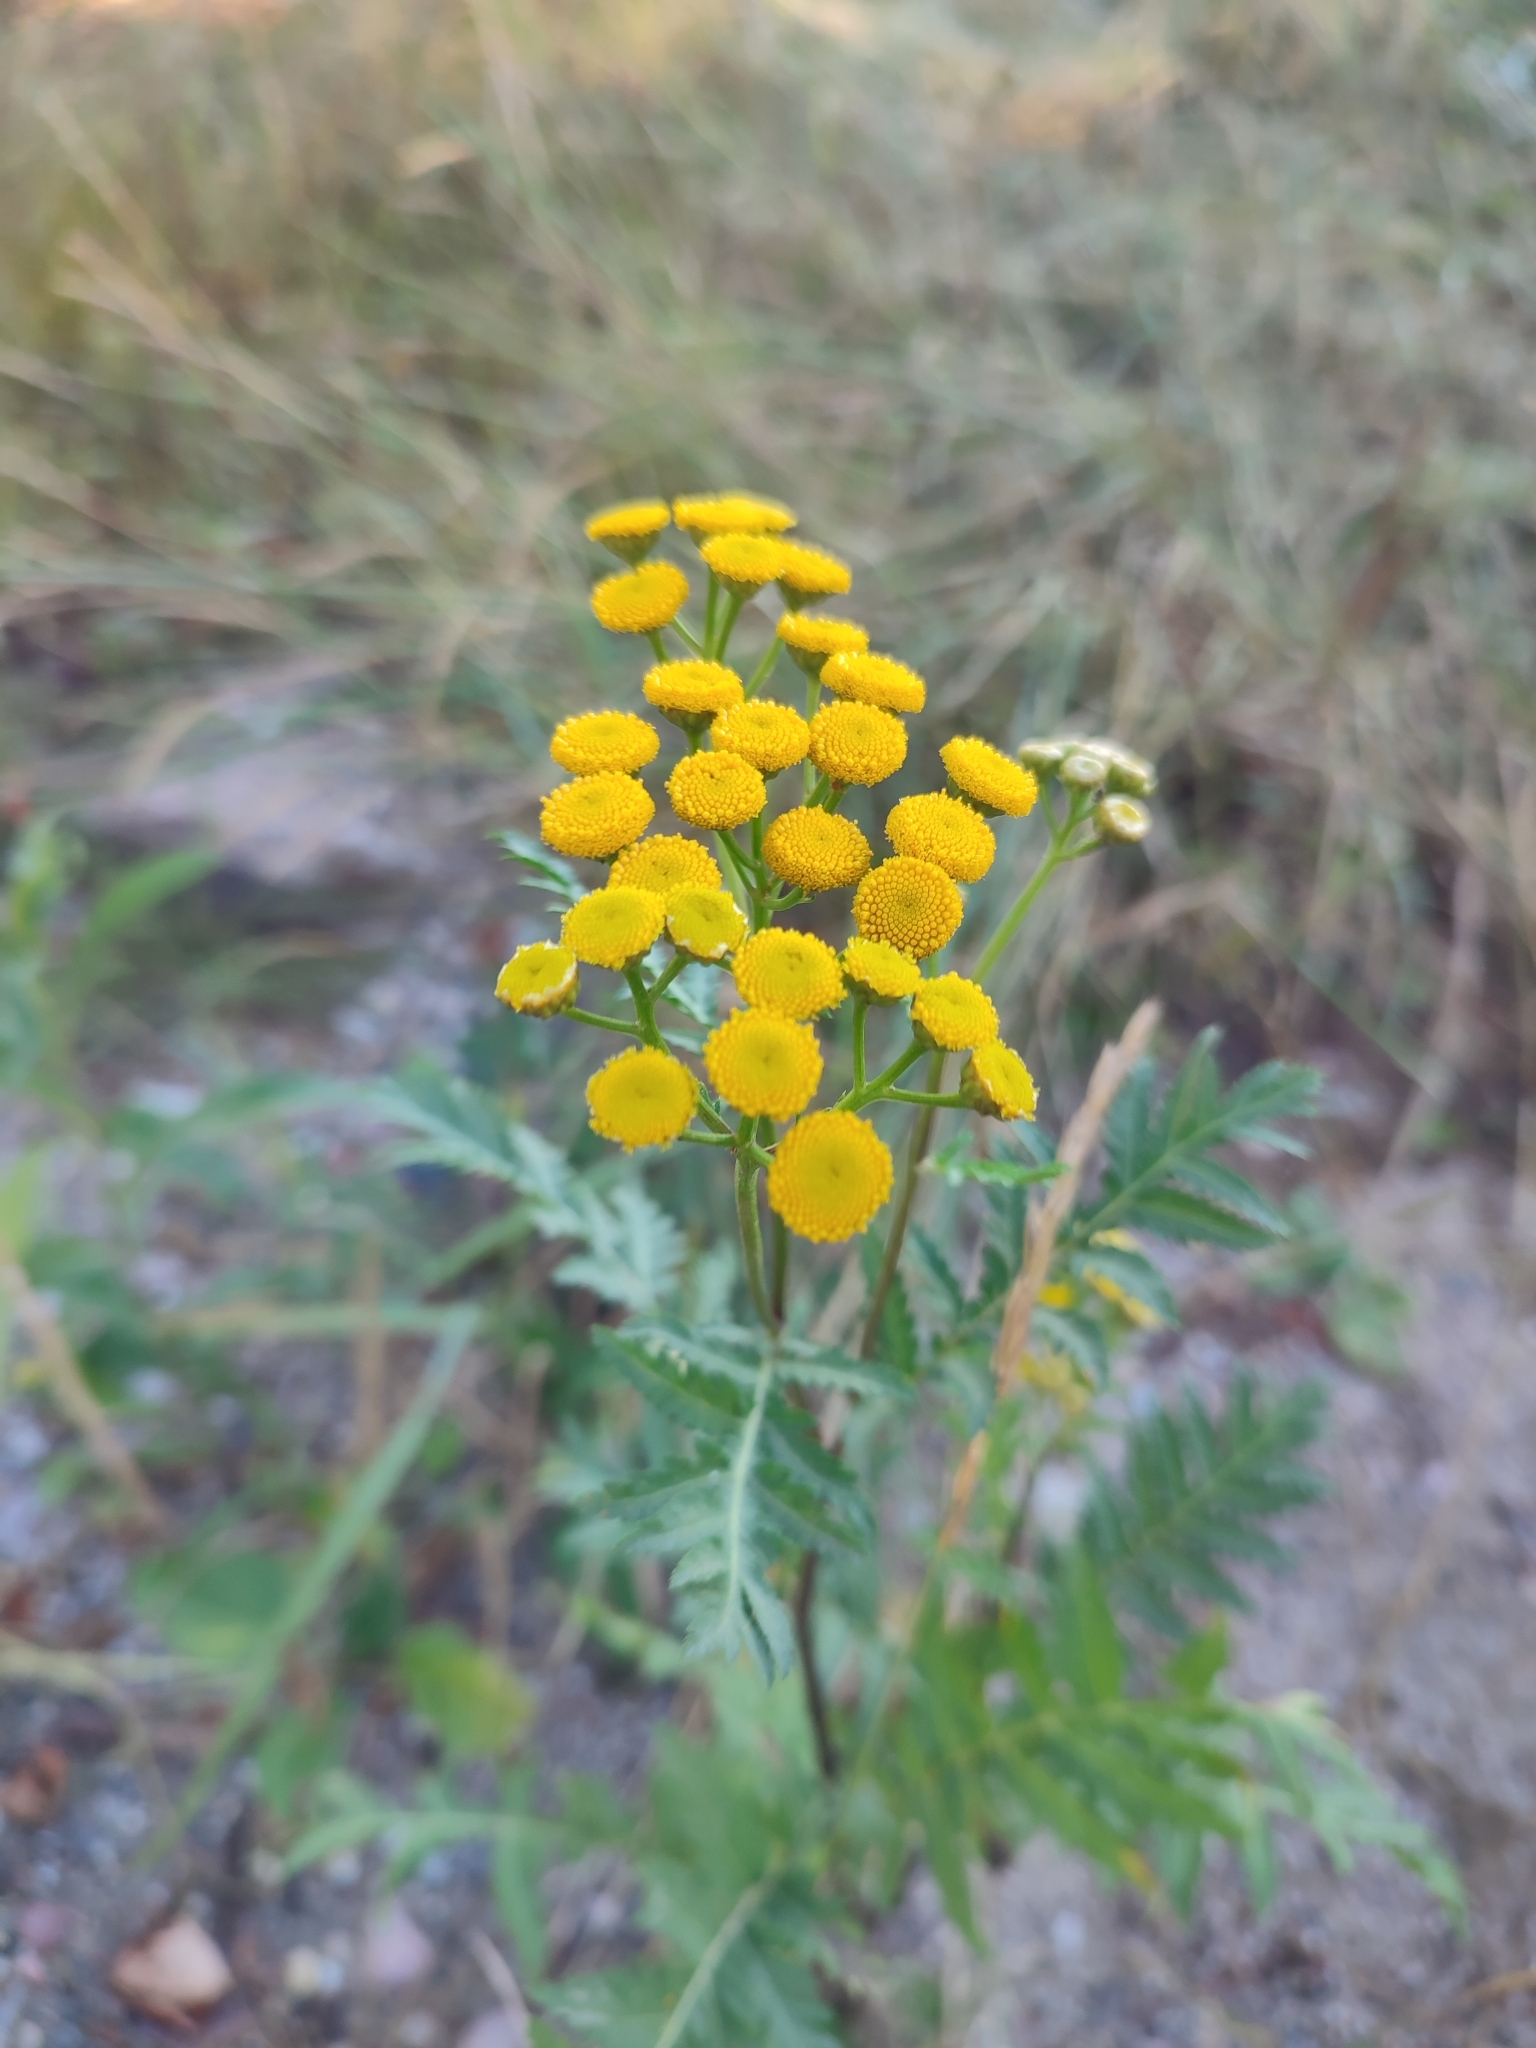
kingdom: Plantae
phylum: Tracheophyta
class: Magnoliopsida
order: Asterales
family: Asteraceae
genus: Tanacetum
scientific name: Tanacetum vulgare
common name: Common tansy
